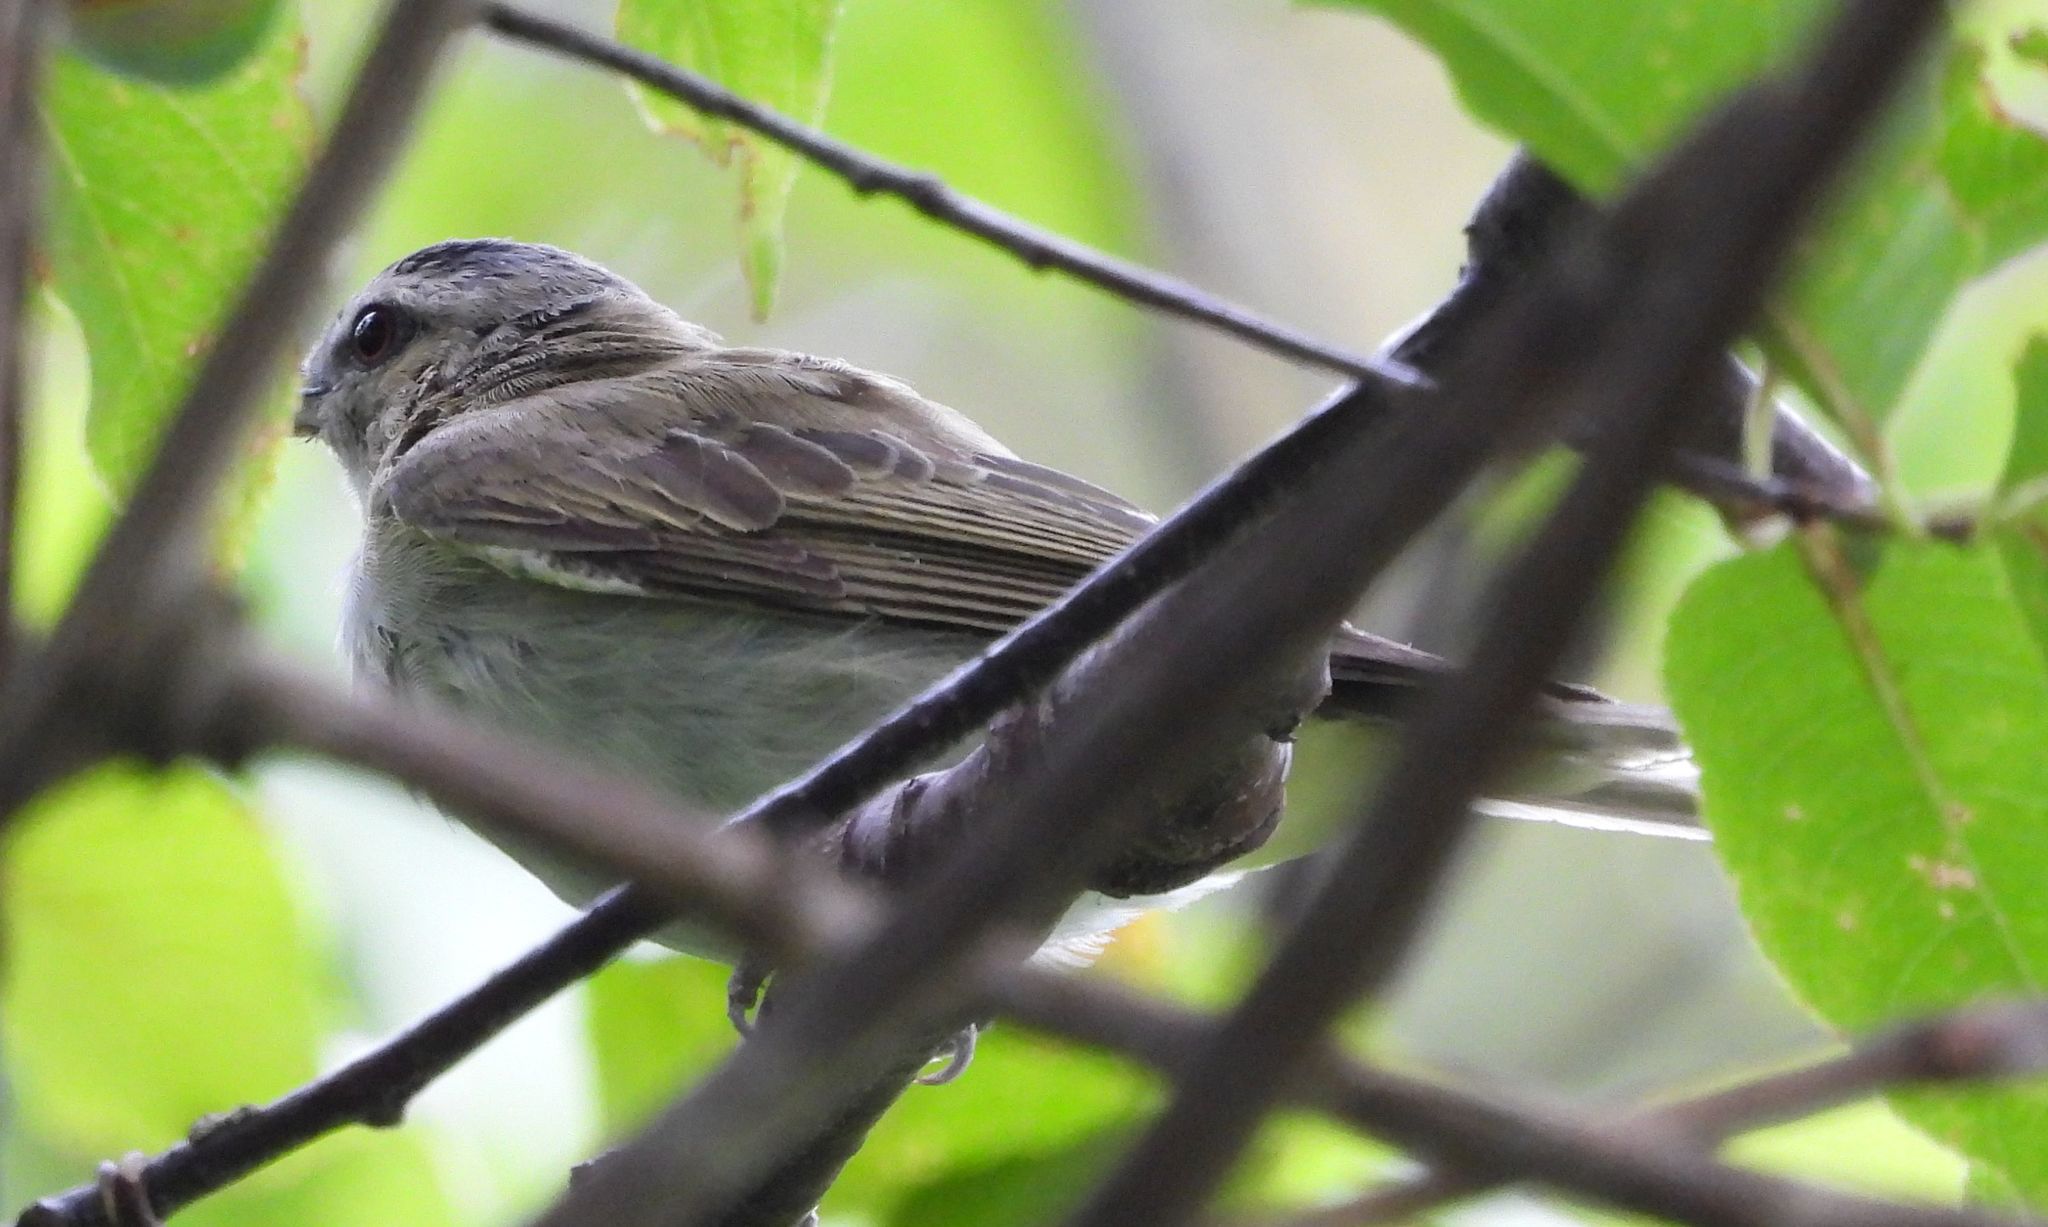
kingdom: Animalia
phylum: Chordata
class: Aves
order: Passeriformes
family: Vireonidae
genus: Vireo
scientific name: Vireo gilvus
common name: Warbling vireo
